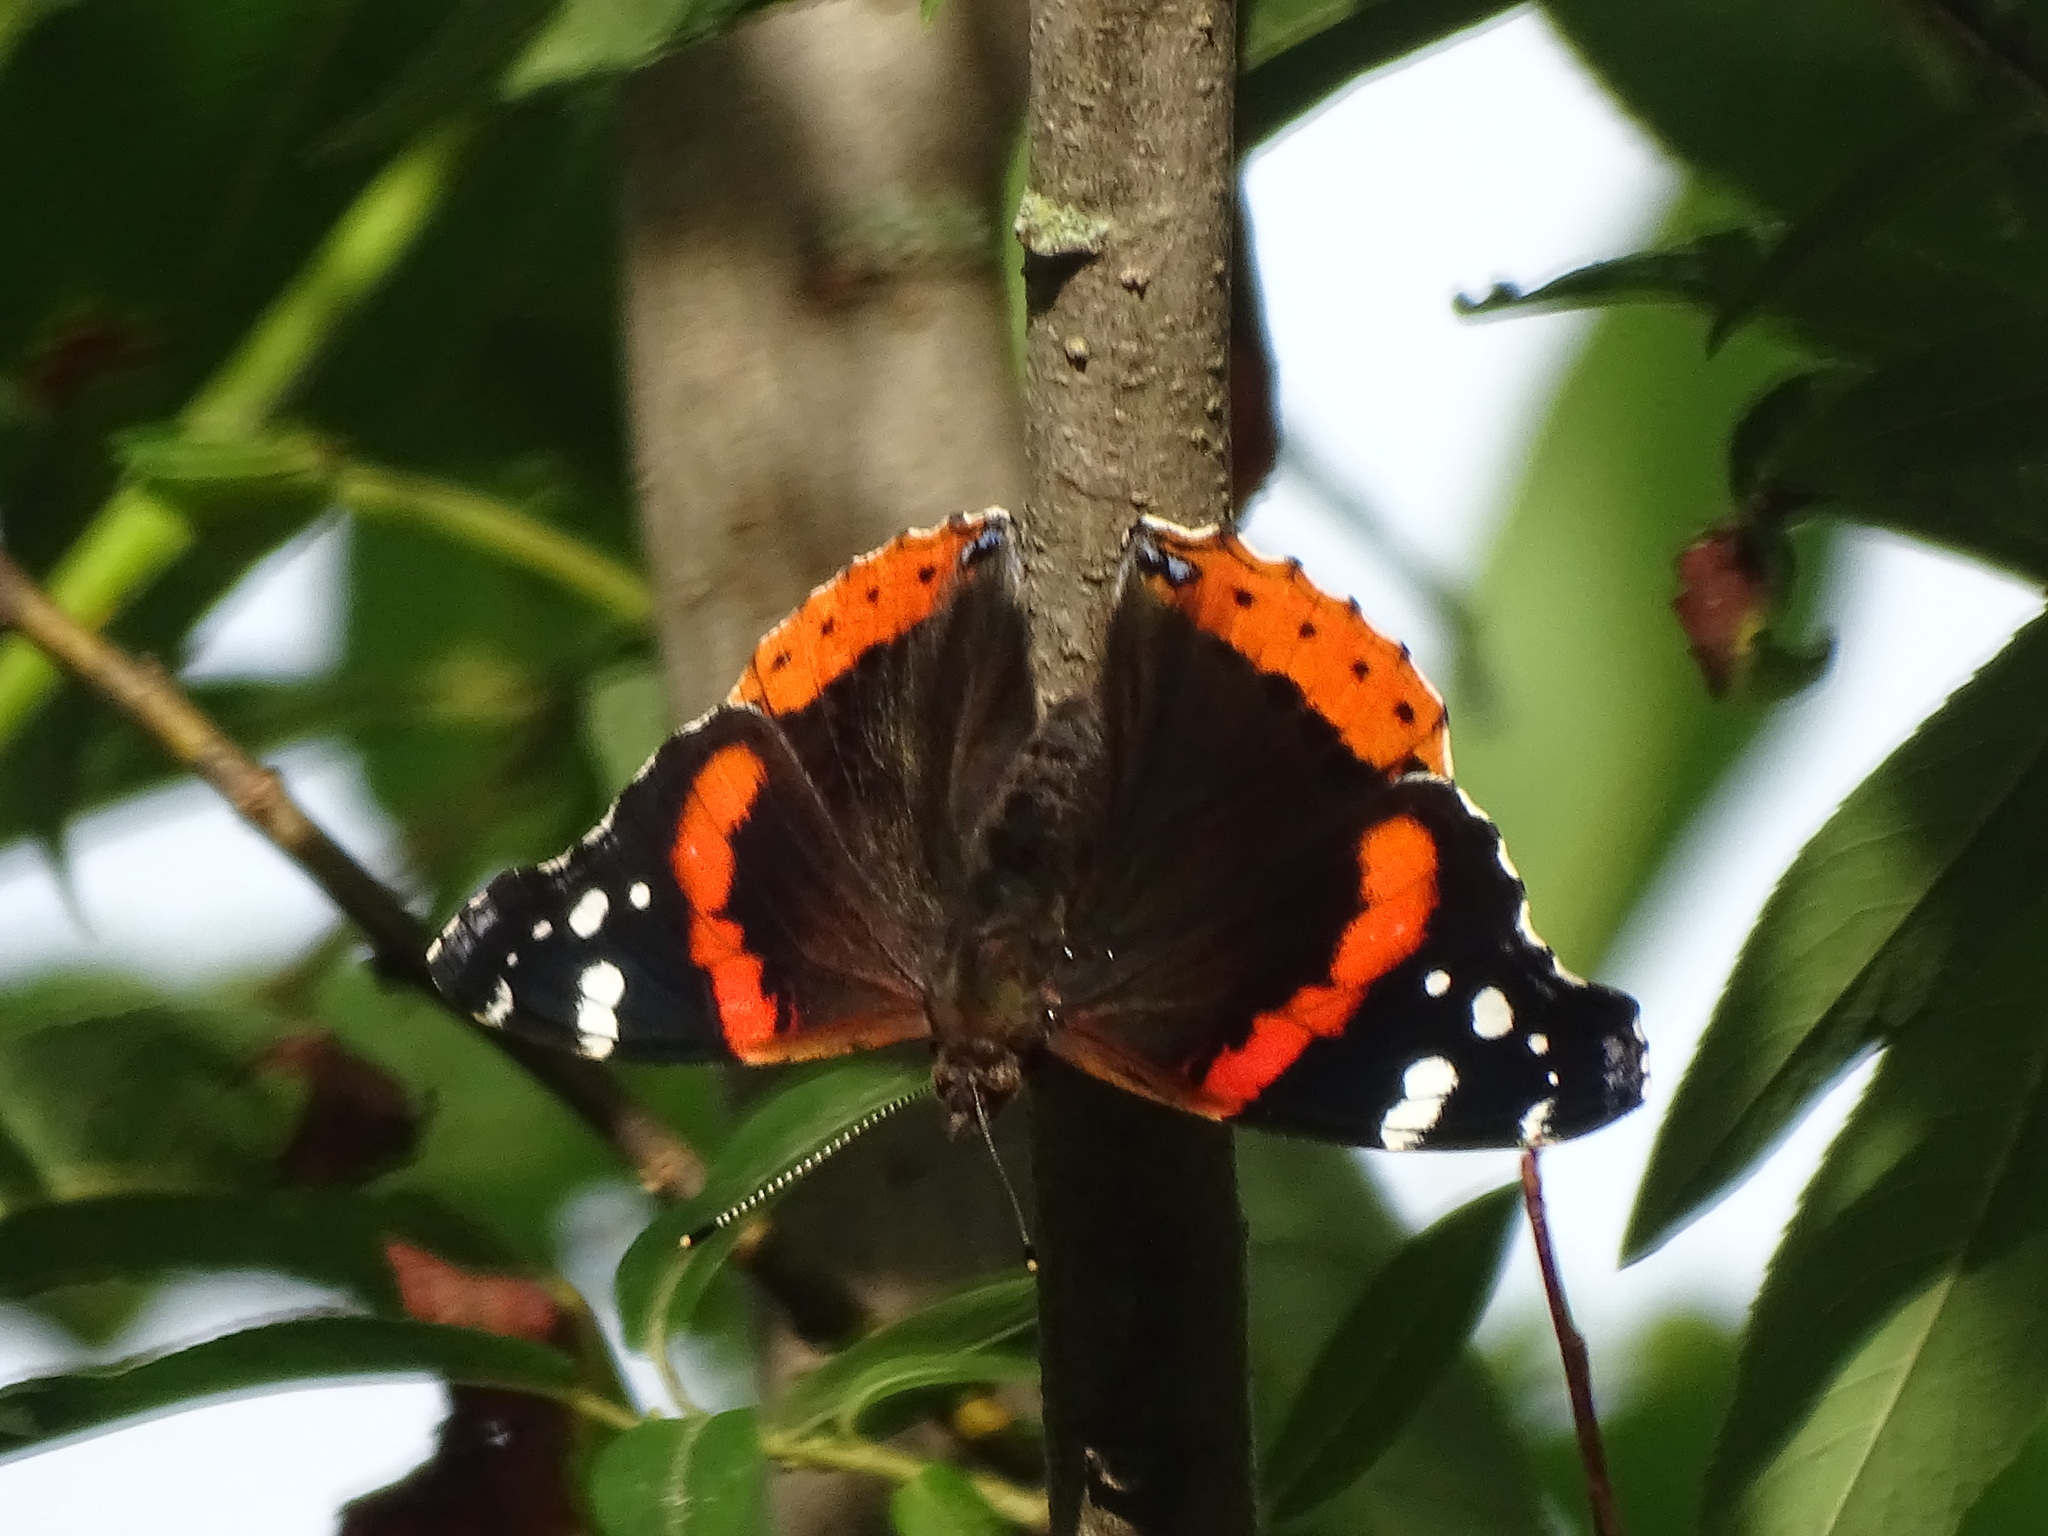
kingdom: Animalia
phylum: Arthropoda
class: Insecta
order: Lepidoptera
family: Nymphalidae
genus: Vanessa
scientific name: Vanessa atalanta
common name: Red admiral
